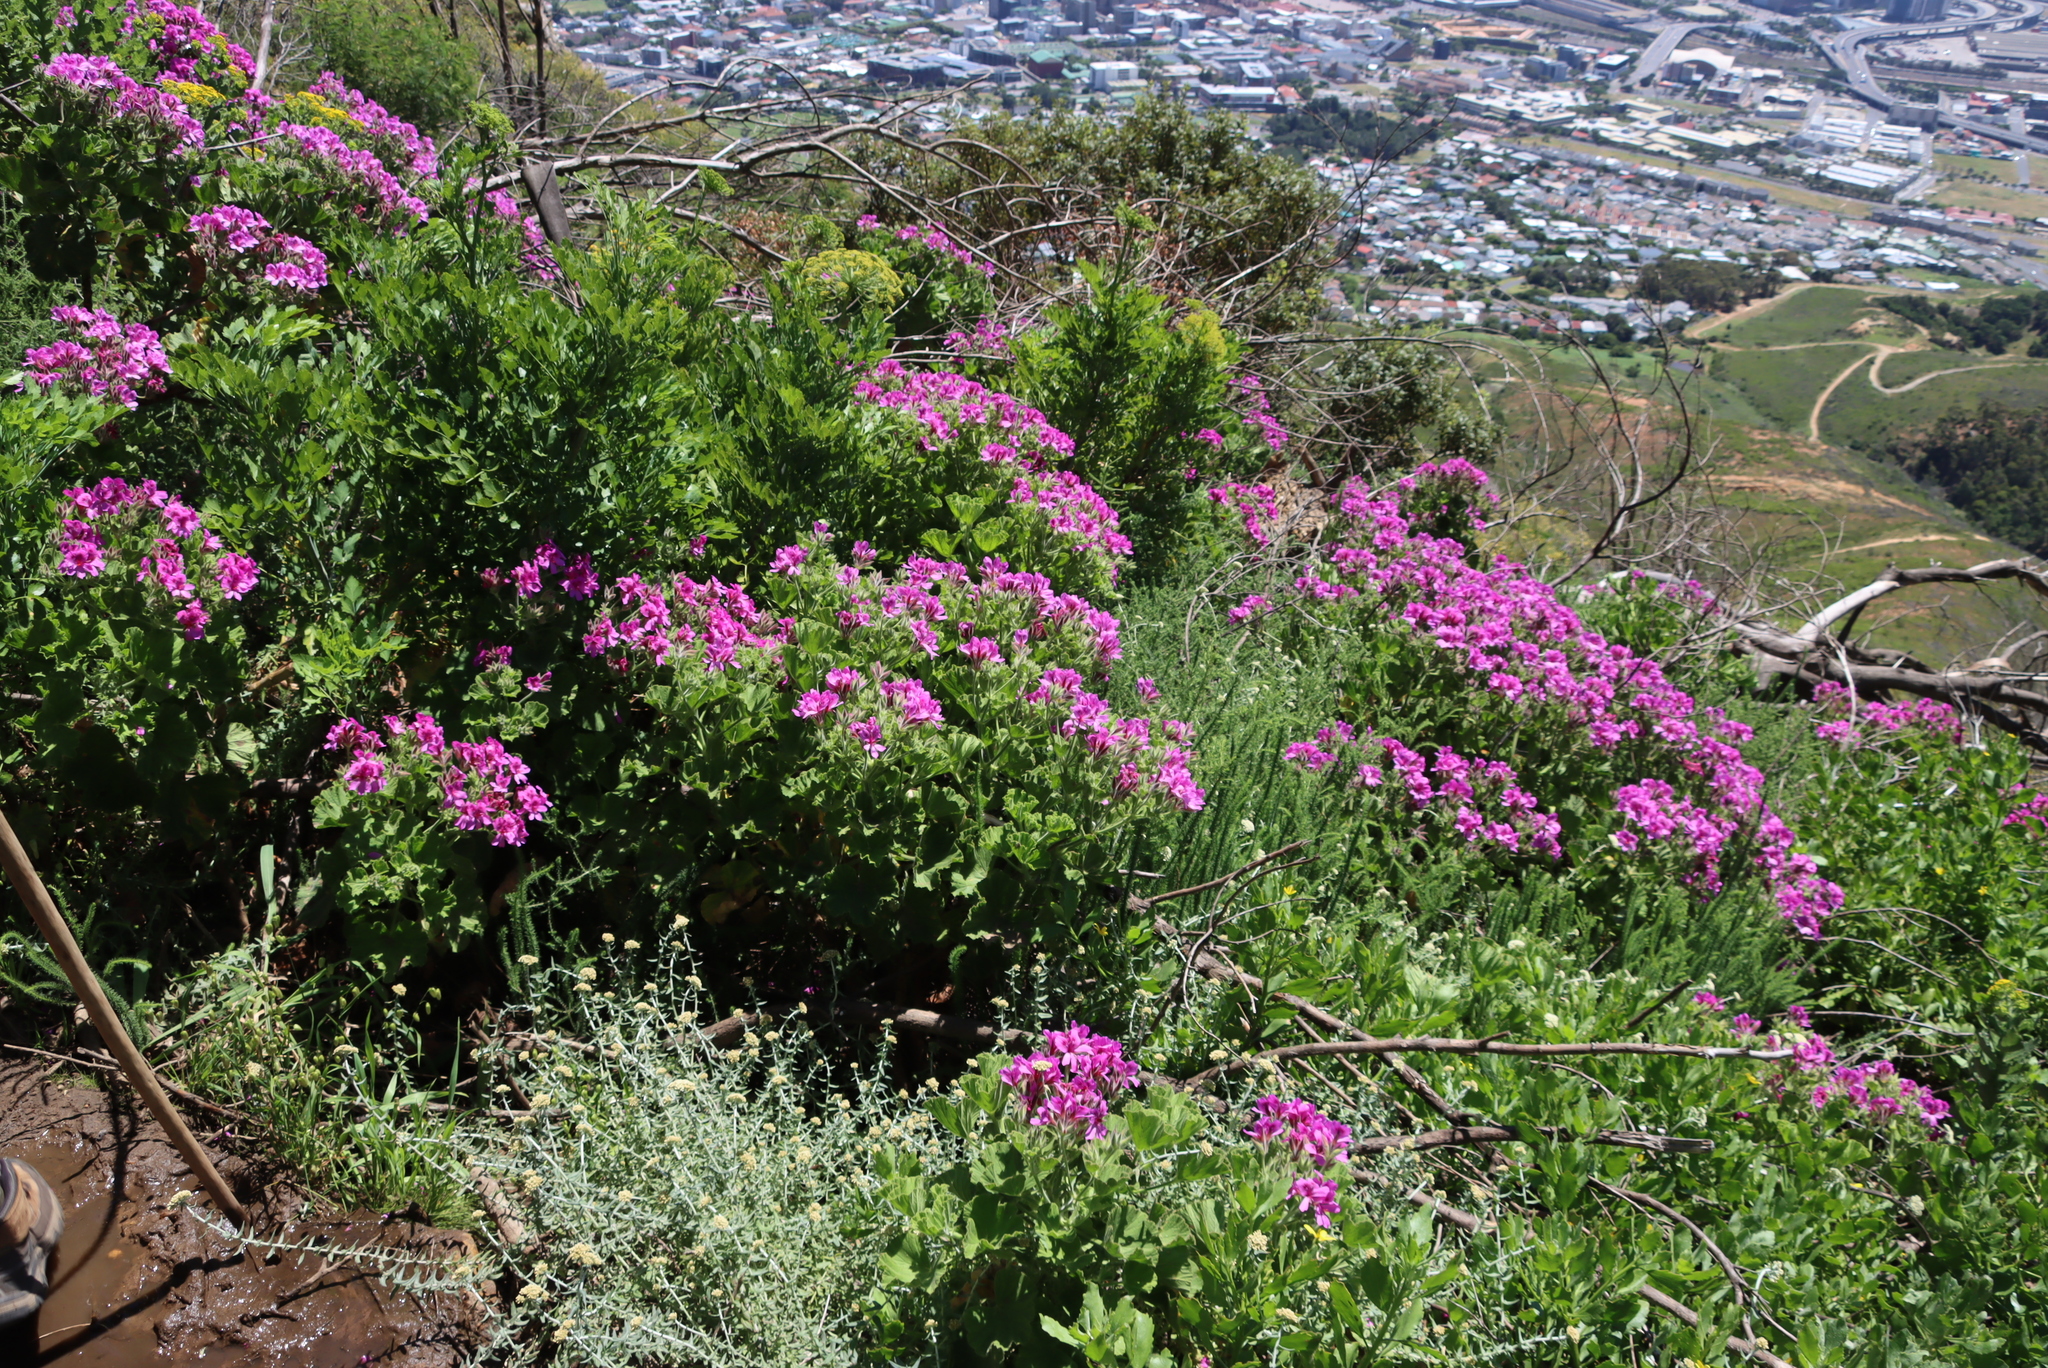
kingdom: Plantae
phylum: Tracheophyta
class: Magnoliopsida
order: Geraniales
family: Geraniaceae
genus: Pelargonium
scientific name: Pelargonium cucullatum
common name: Tree pelargonium
